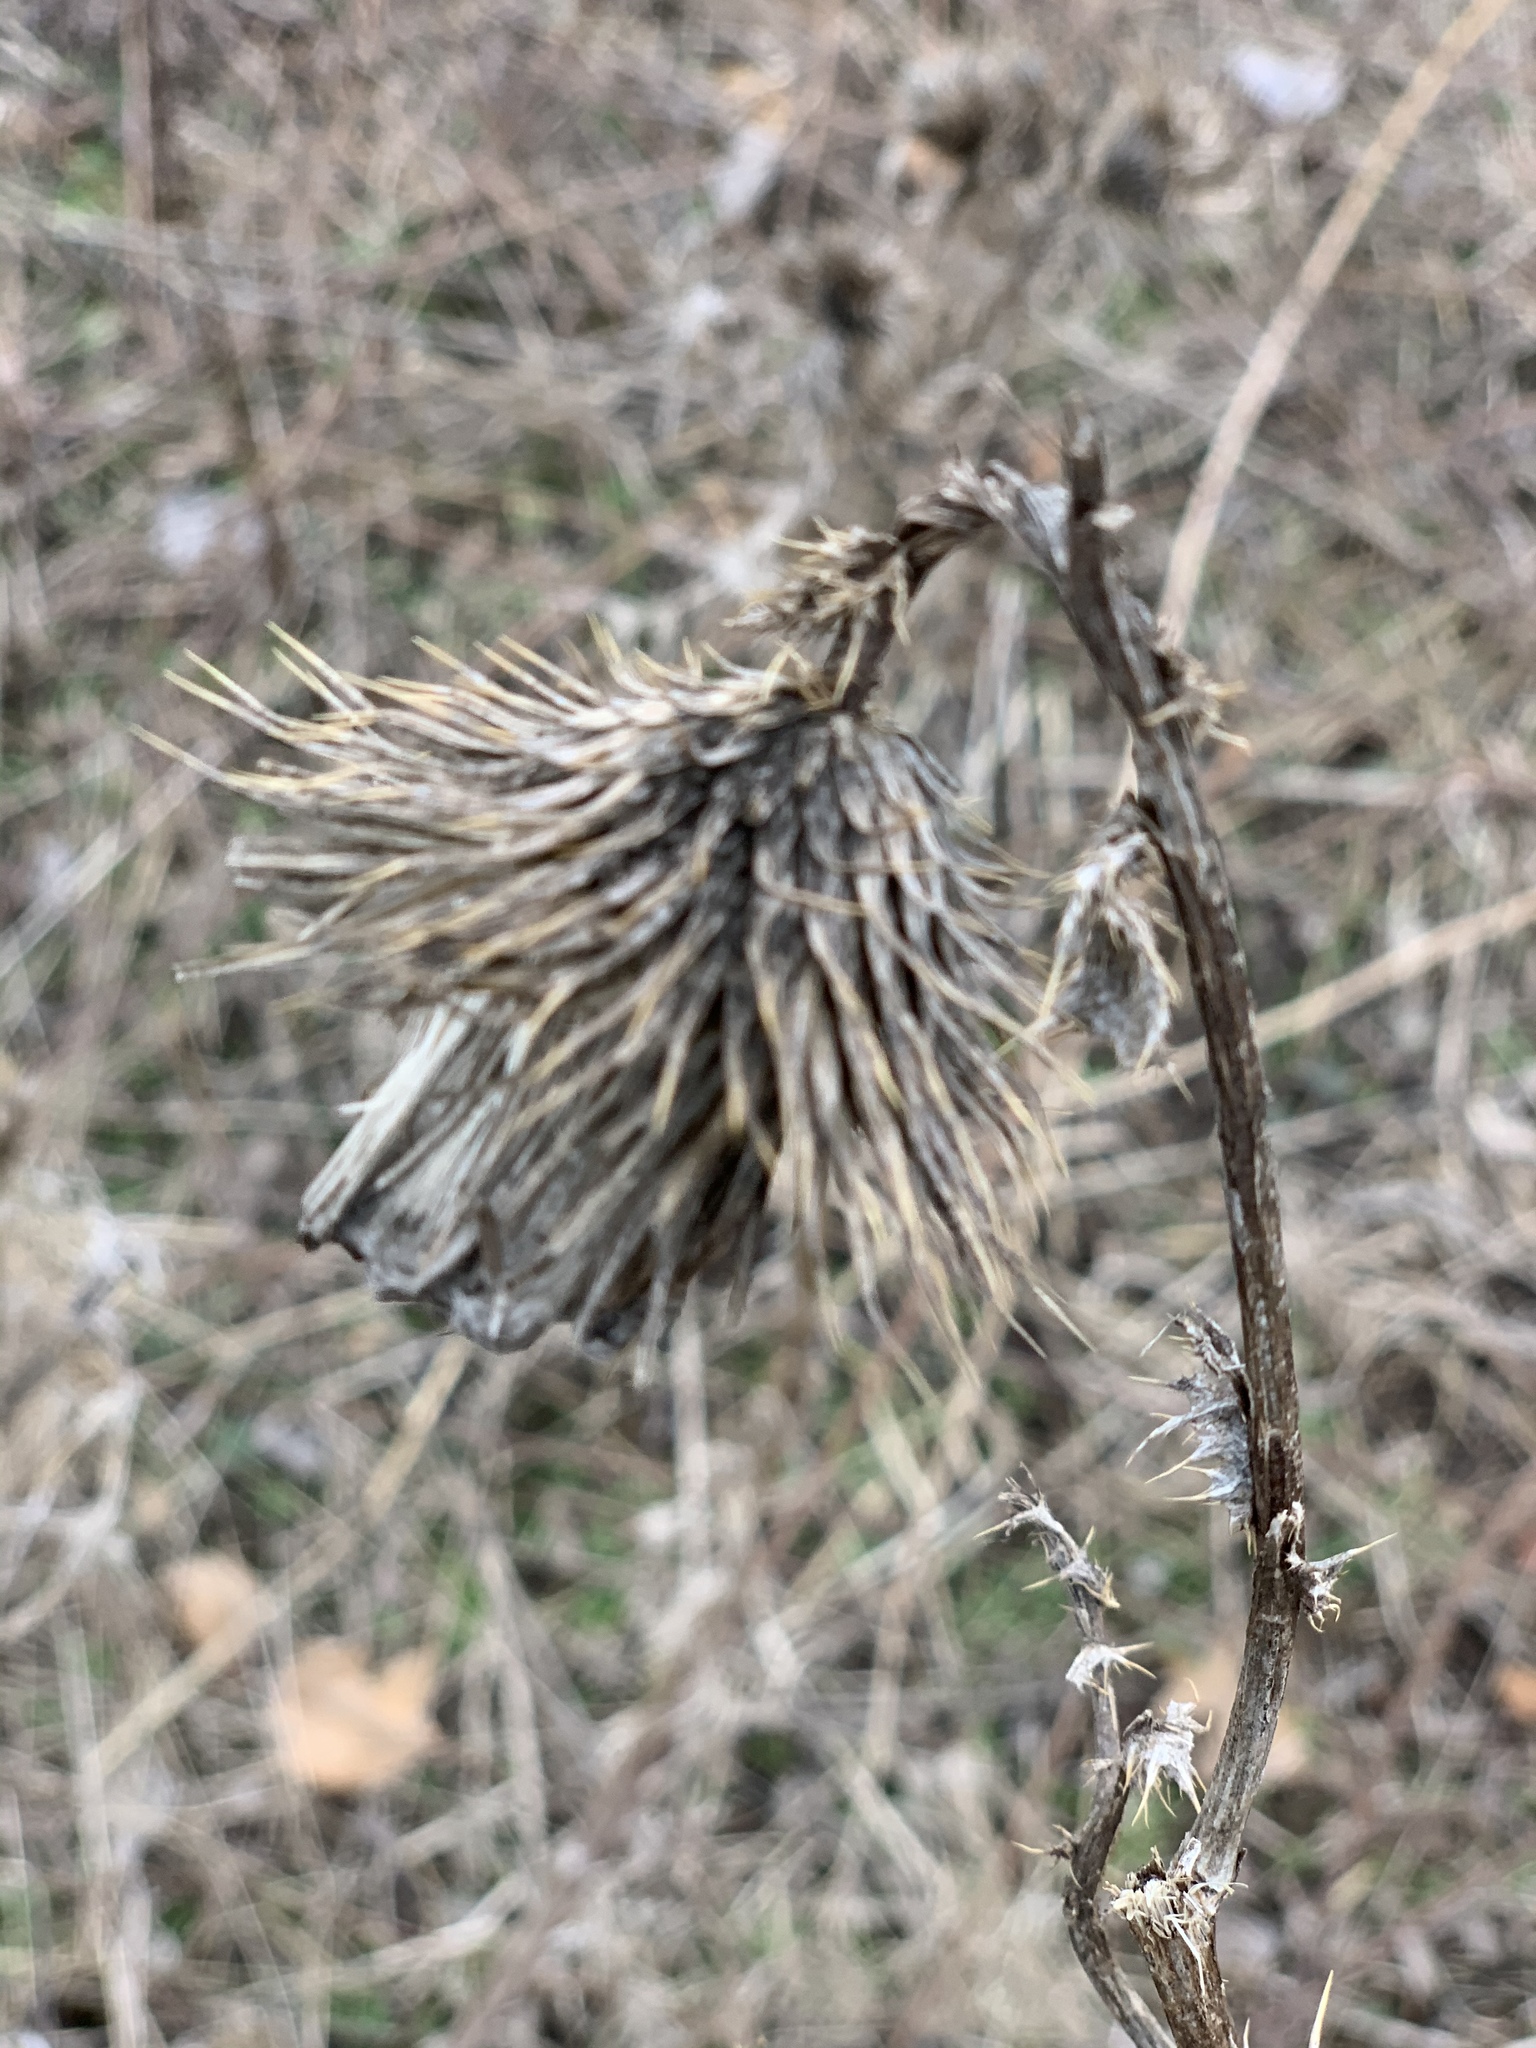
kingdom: Plantae
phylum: Tracheophyta
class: Magnoliopsida
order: Asterales
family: Asteraceae
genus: Cirsium
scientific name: Cirsium vulgare
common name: Bull thistle
